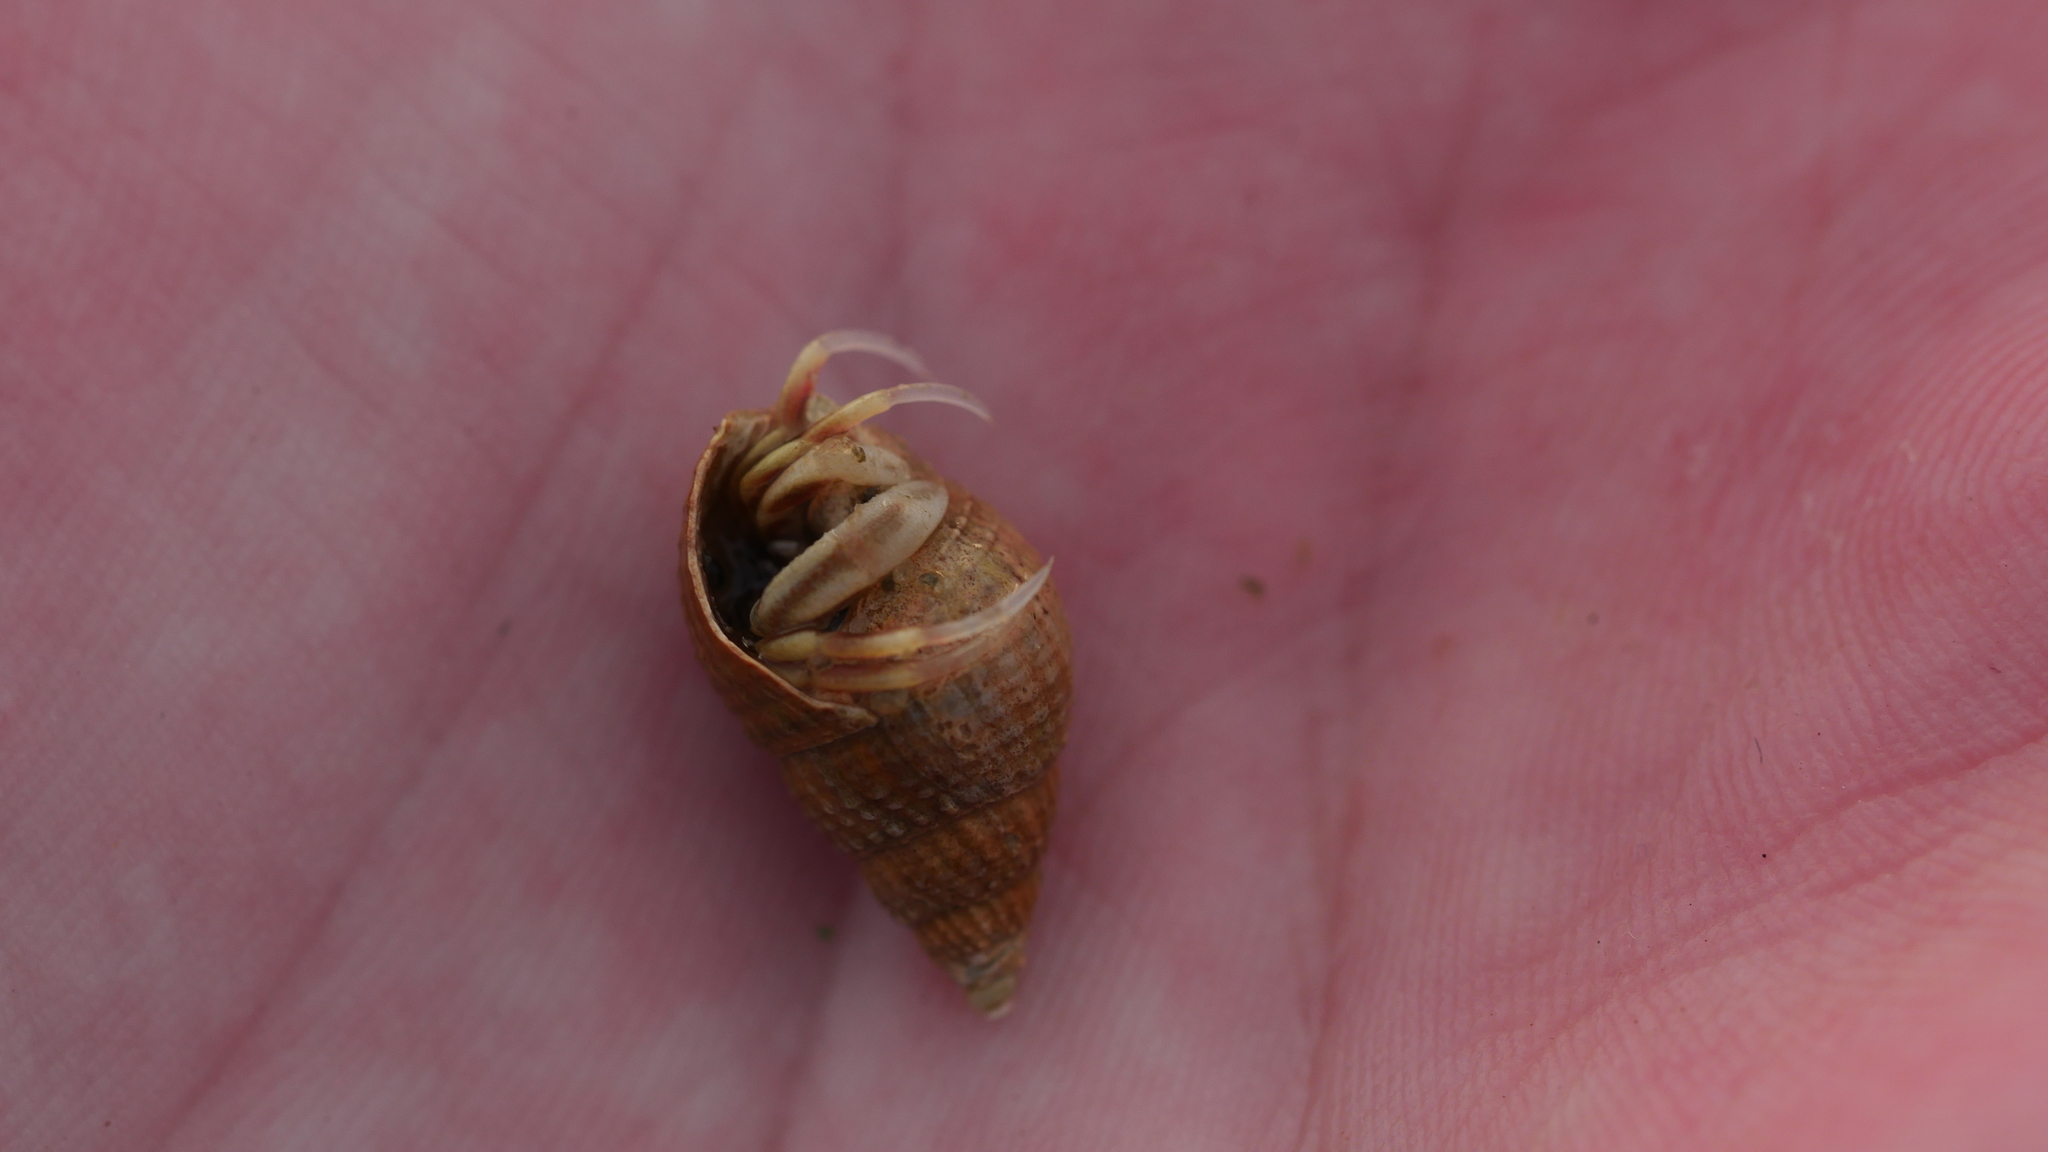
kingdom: Animalia
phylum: Arthropoda
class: Malacostraca
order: Decapoda
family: Paguridae
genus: Pagurus
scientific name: Pagurus longicarpus
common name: Long-armed hermit crab
